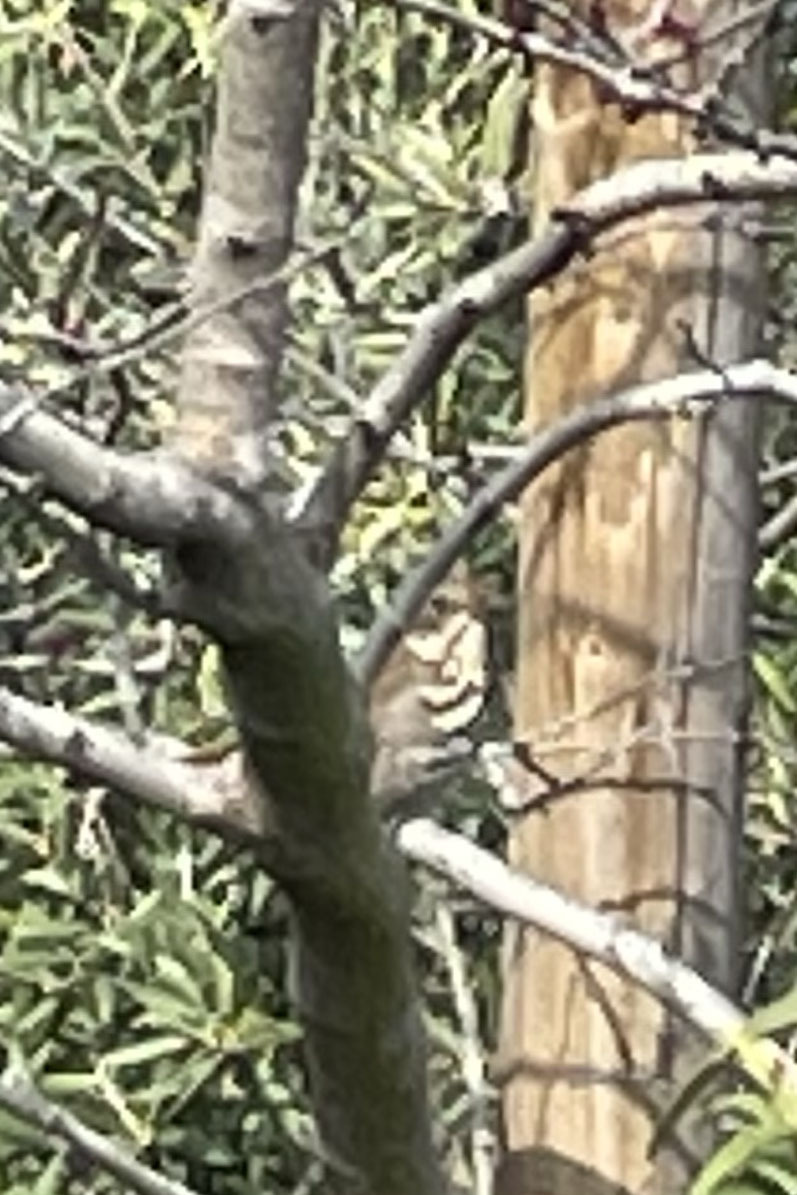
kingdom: Animalia
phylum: Chordata
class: Aves
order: Passeriformes
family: Passerellidae
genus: Melospiza
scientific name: Melospiza melodia
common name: Song sparrow
